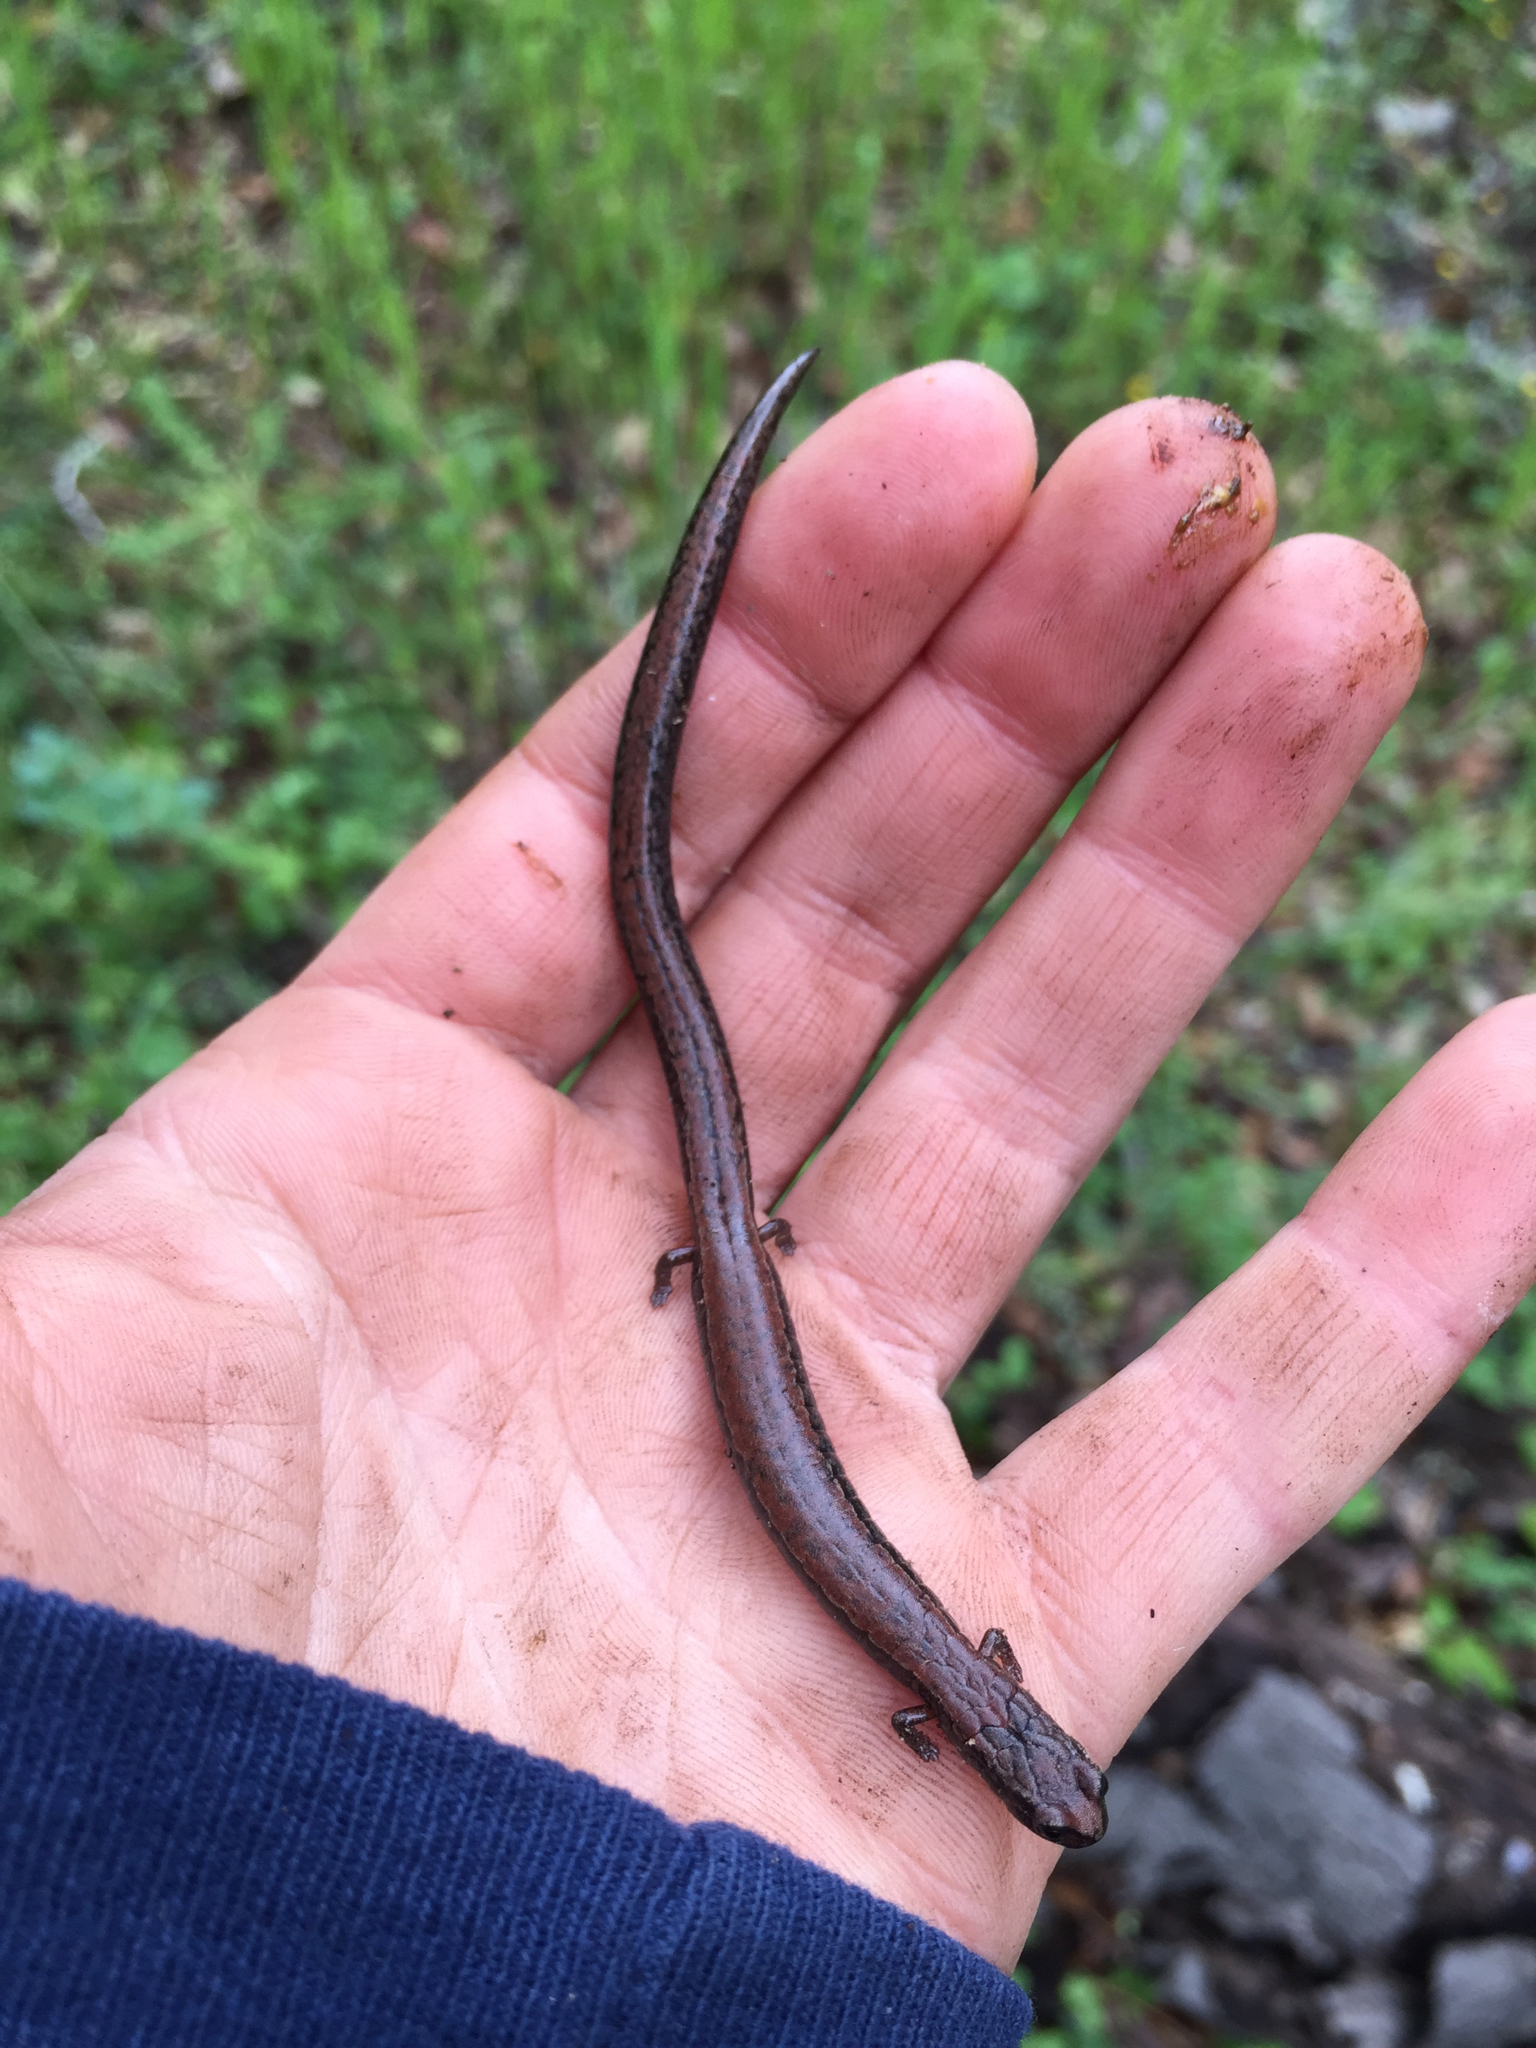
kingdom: Animalia
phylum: Chordata
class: Amphibia
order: Caudata
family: Plethodontidae
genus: Batrachoseps
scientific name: Batrachoseps attenuatus
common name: California slender salamander
